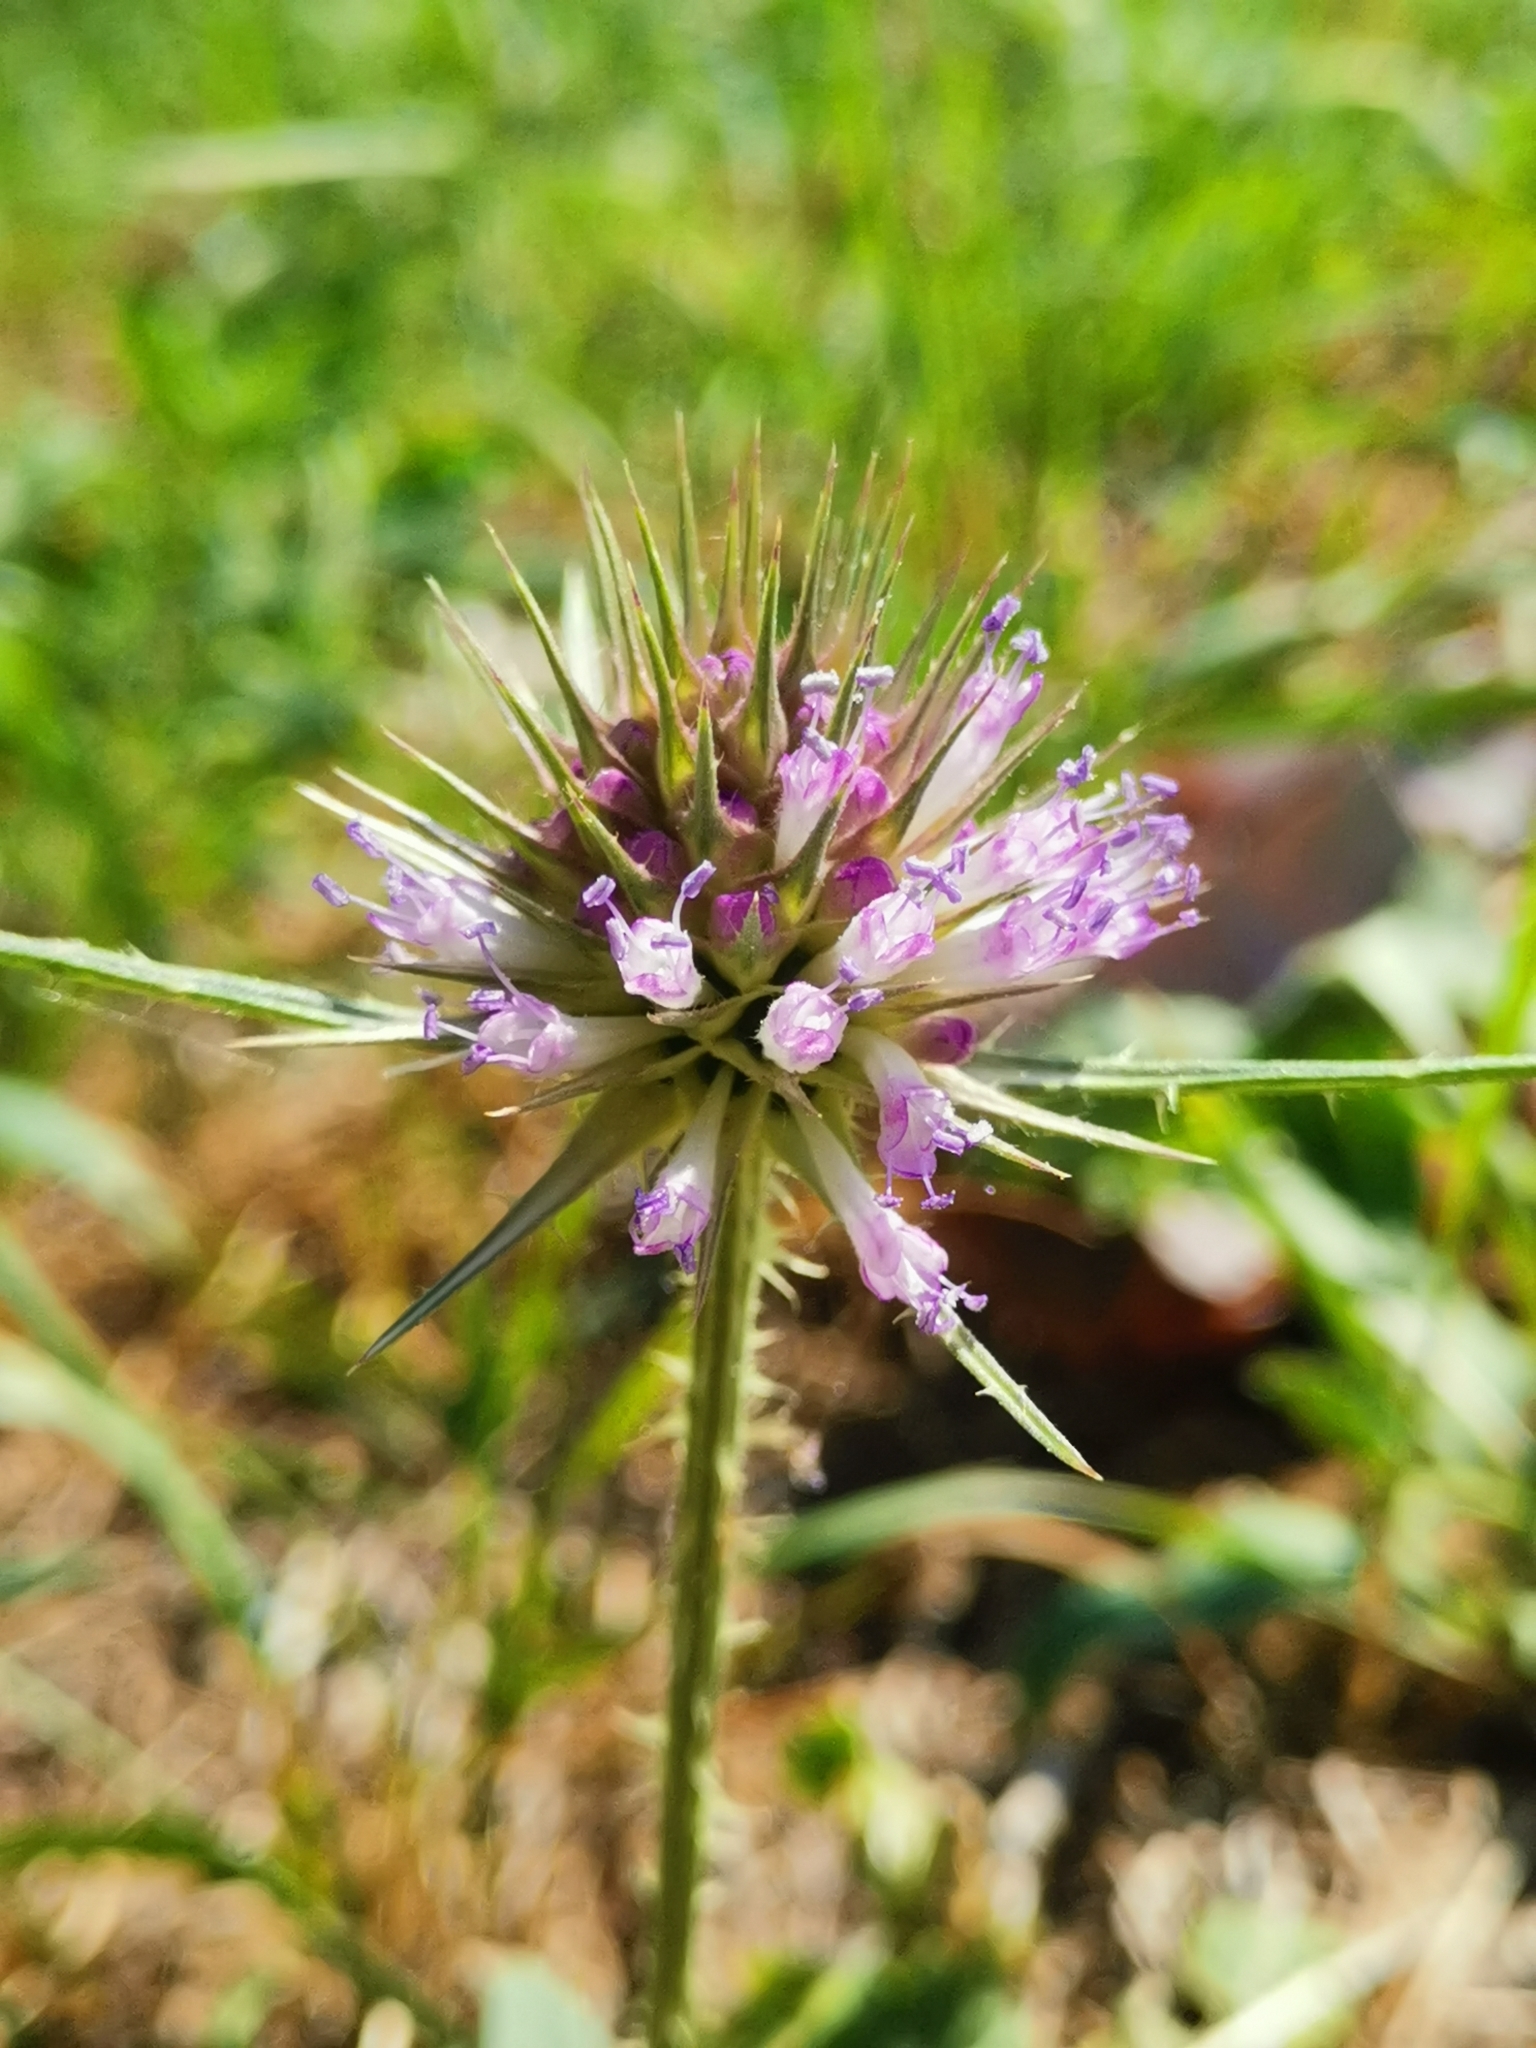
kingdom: Plantae
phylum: Tracheophyta
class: Magnoliopsida
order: Dipsacales
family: Caprifoliaceae
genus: Dipsacus
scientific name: Dipsacus fullonum
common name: Teasel
